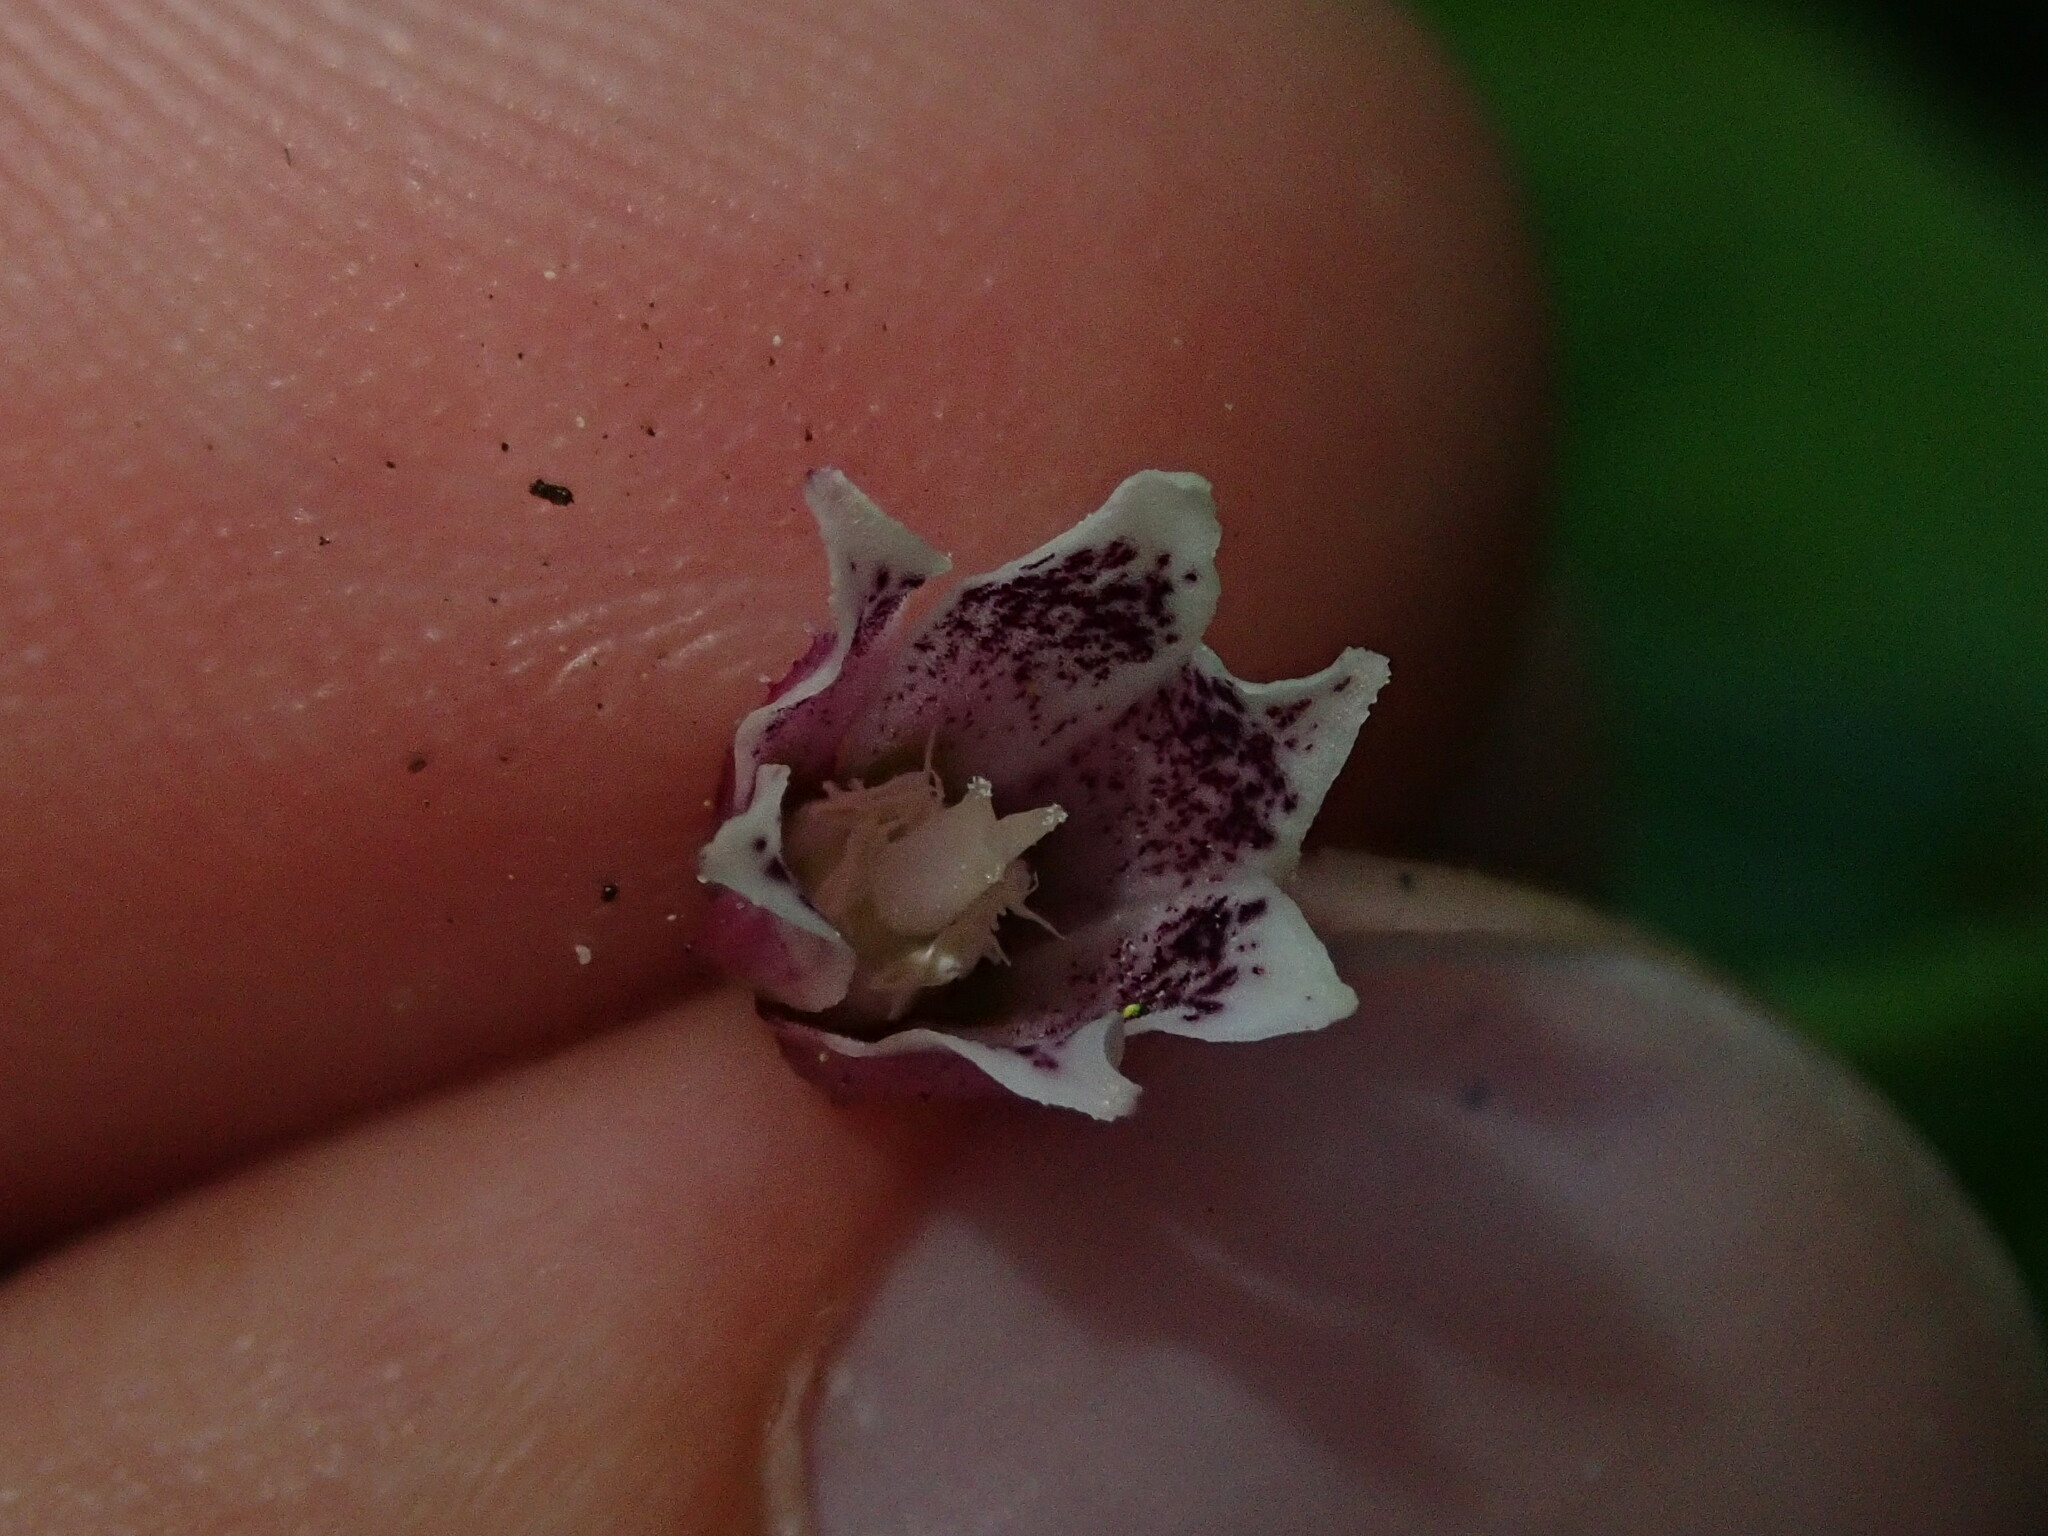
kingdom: Plantae
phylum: Tracheophyta
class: Liliopsida
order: Liliales
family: Liliaceae
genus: Streptopus
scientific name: Streptopus lanceolatus
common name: Rose mandarin
